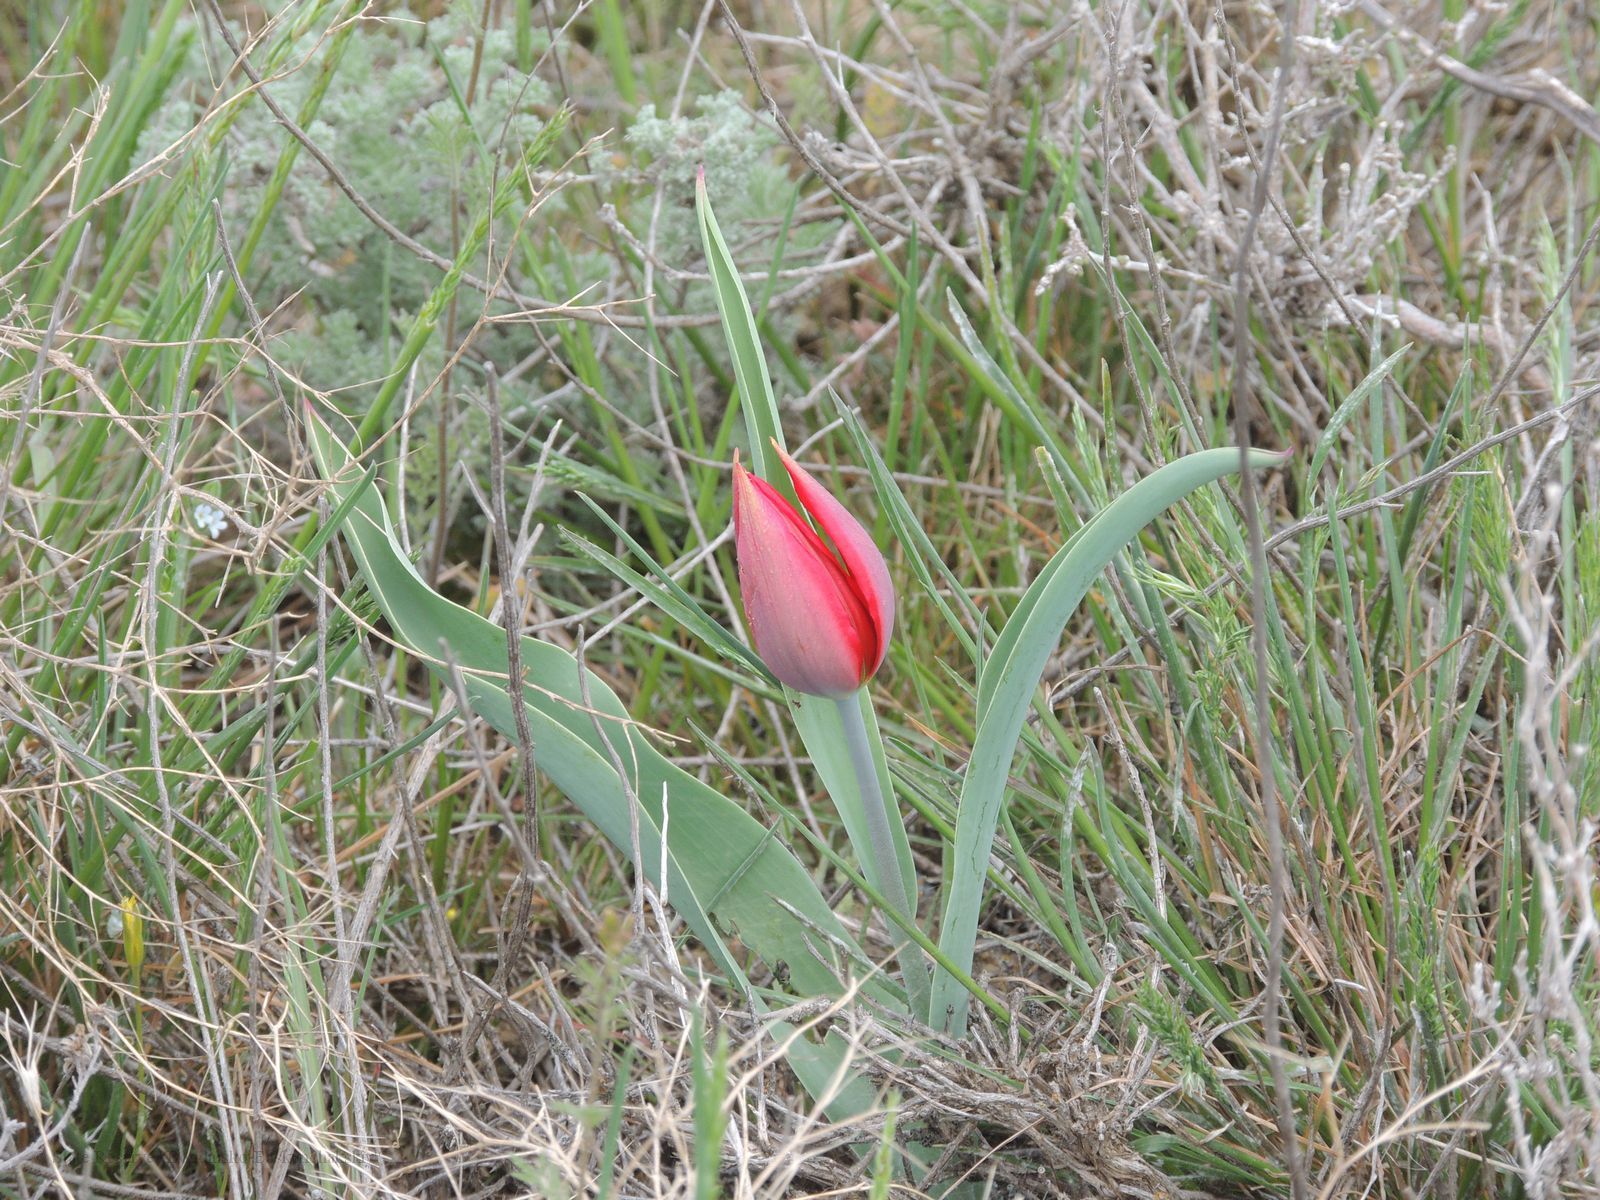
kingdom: Plantae
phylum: Tracheophyta
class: Liliopsida
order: Liliales
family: Liliaceae
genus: Tulipa
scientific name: Tulipa suaveolens
